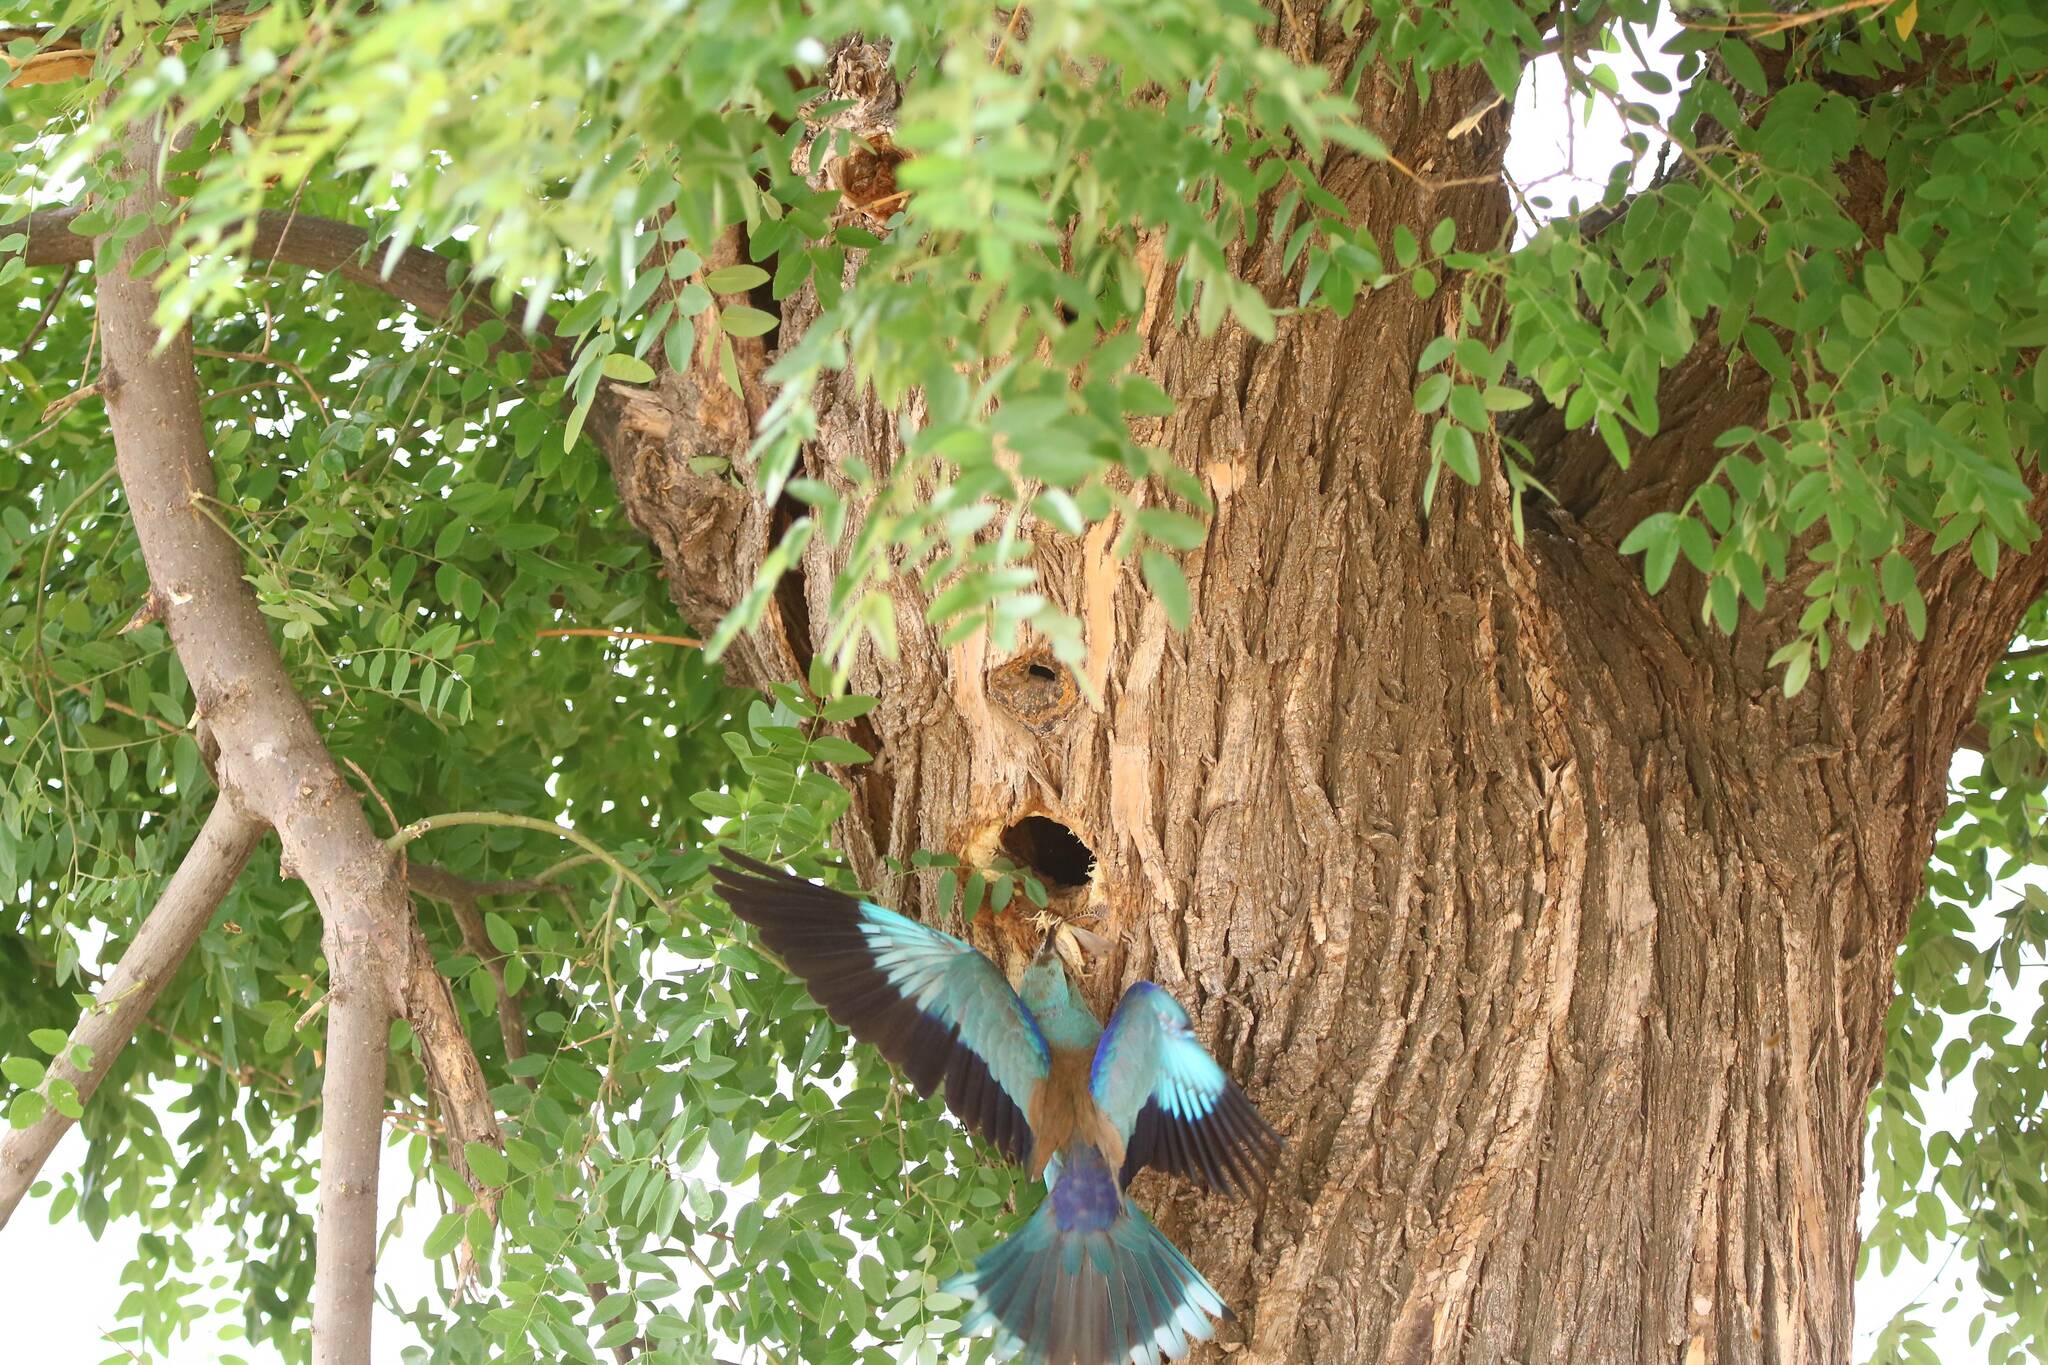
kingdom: Animalia
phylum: Chordata
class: Aves
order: Coraciiformes
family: Coraciidae
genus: Coracias
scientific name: Coracias garrulus
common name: European roller
